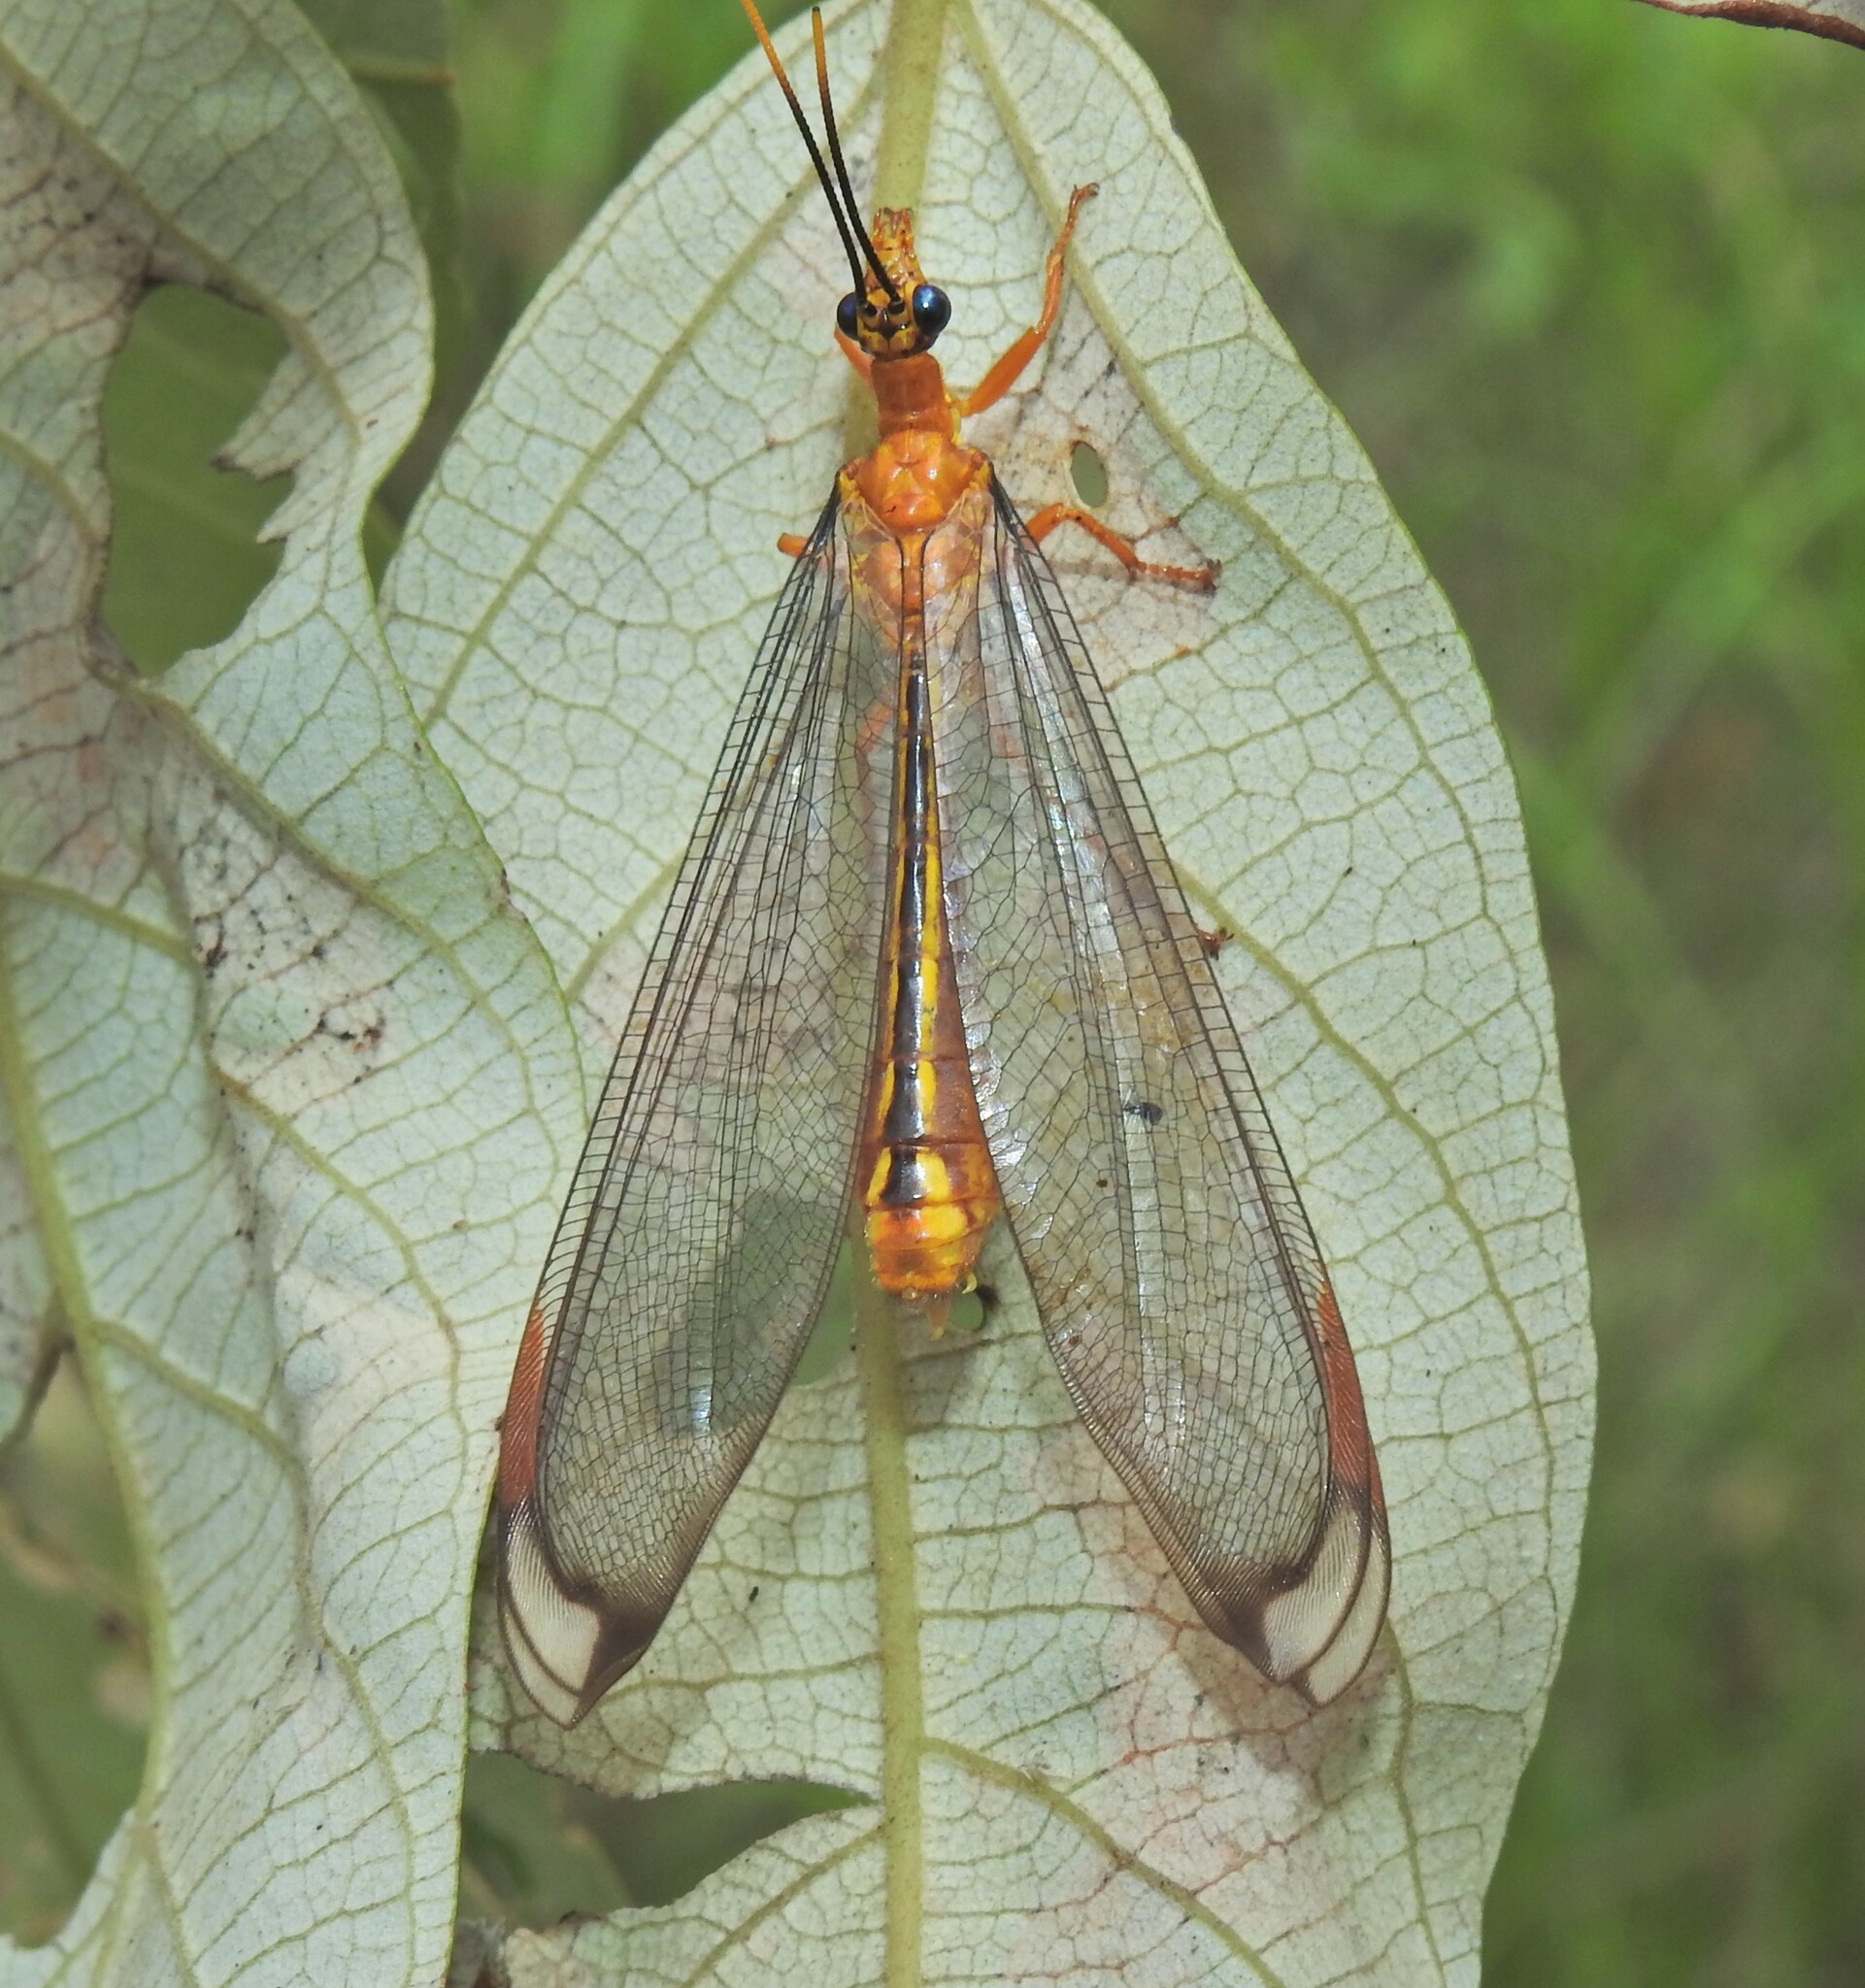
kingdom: Animalia
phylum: Arthropoda
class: Insecta
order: Neuroptera
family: Nymphidae
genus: Nymphes
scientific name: Nymphes myrmeleonoides
